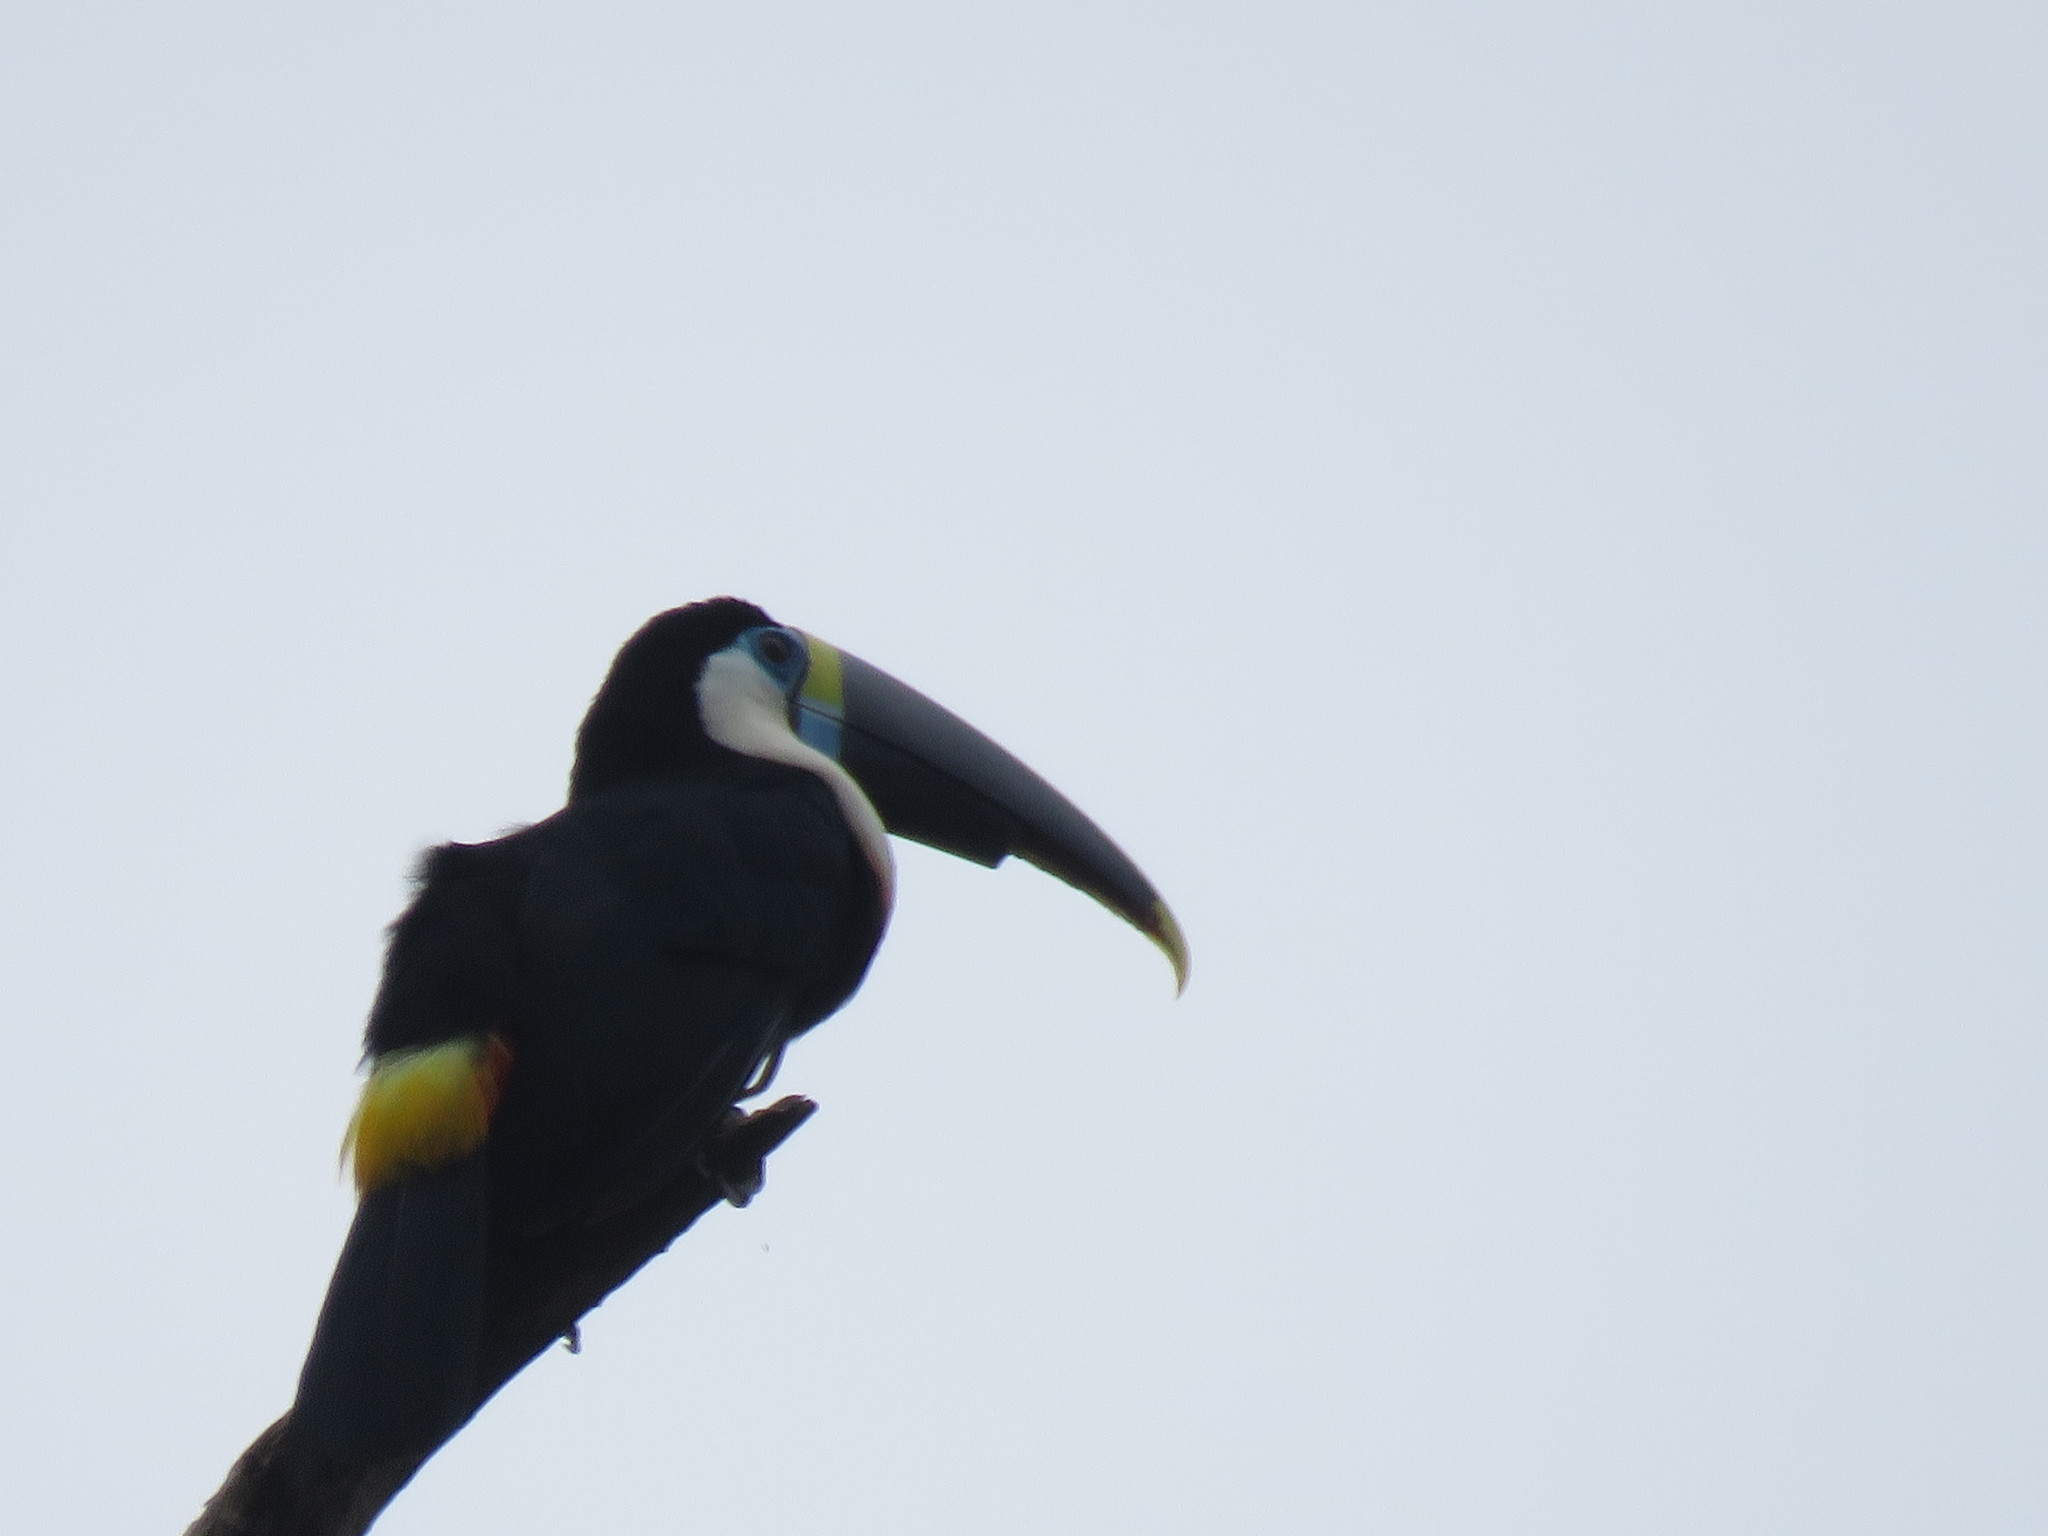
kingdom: Animalia
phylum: Chordata
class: Aves
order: Piciformes
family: Ramphastidae
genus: Ramphastos
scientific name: Ramphastos tucanus
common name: White-throated toucan
